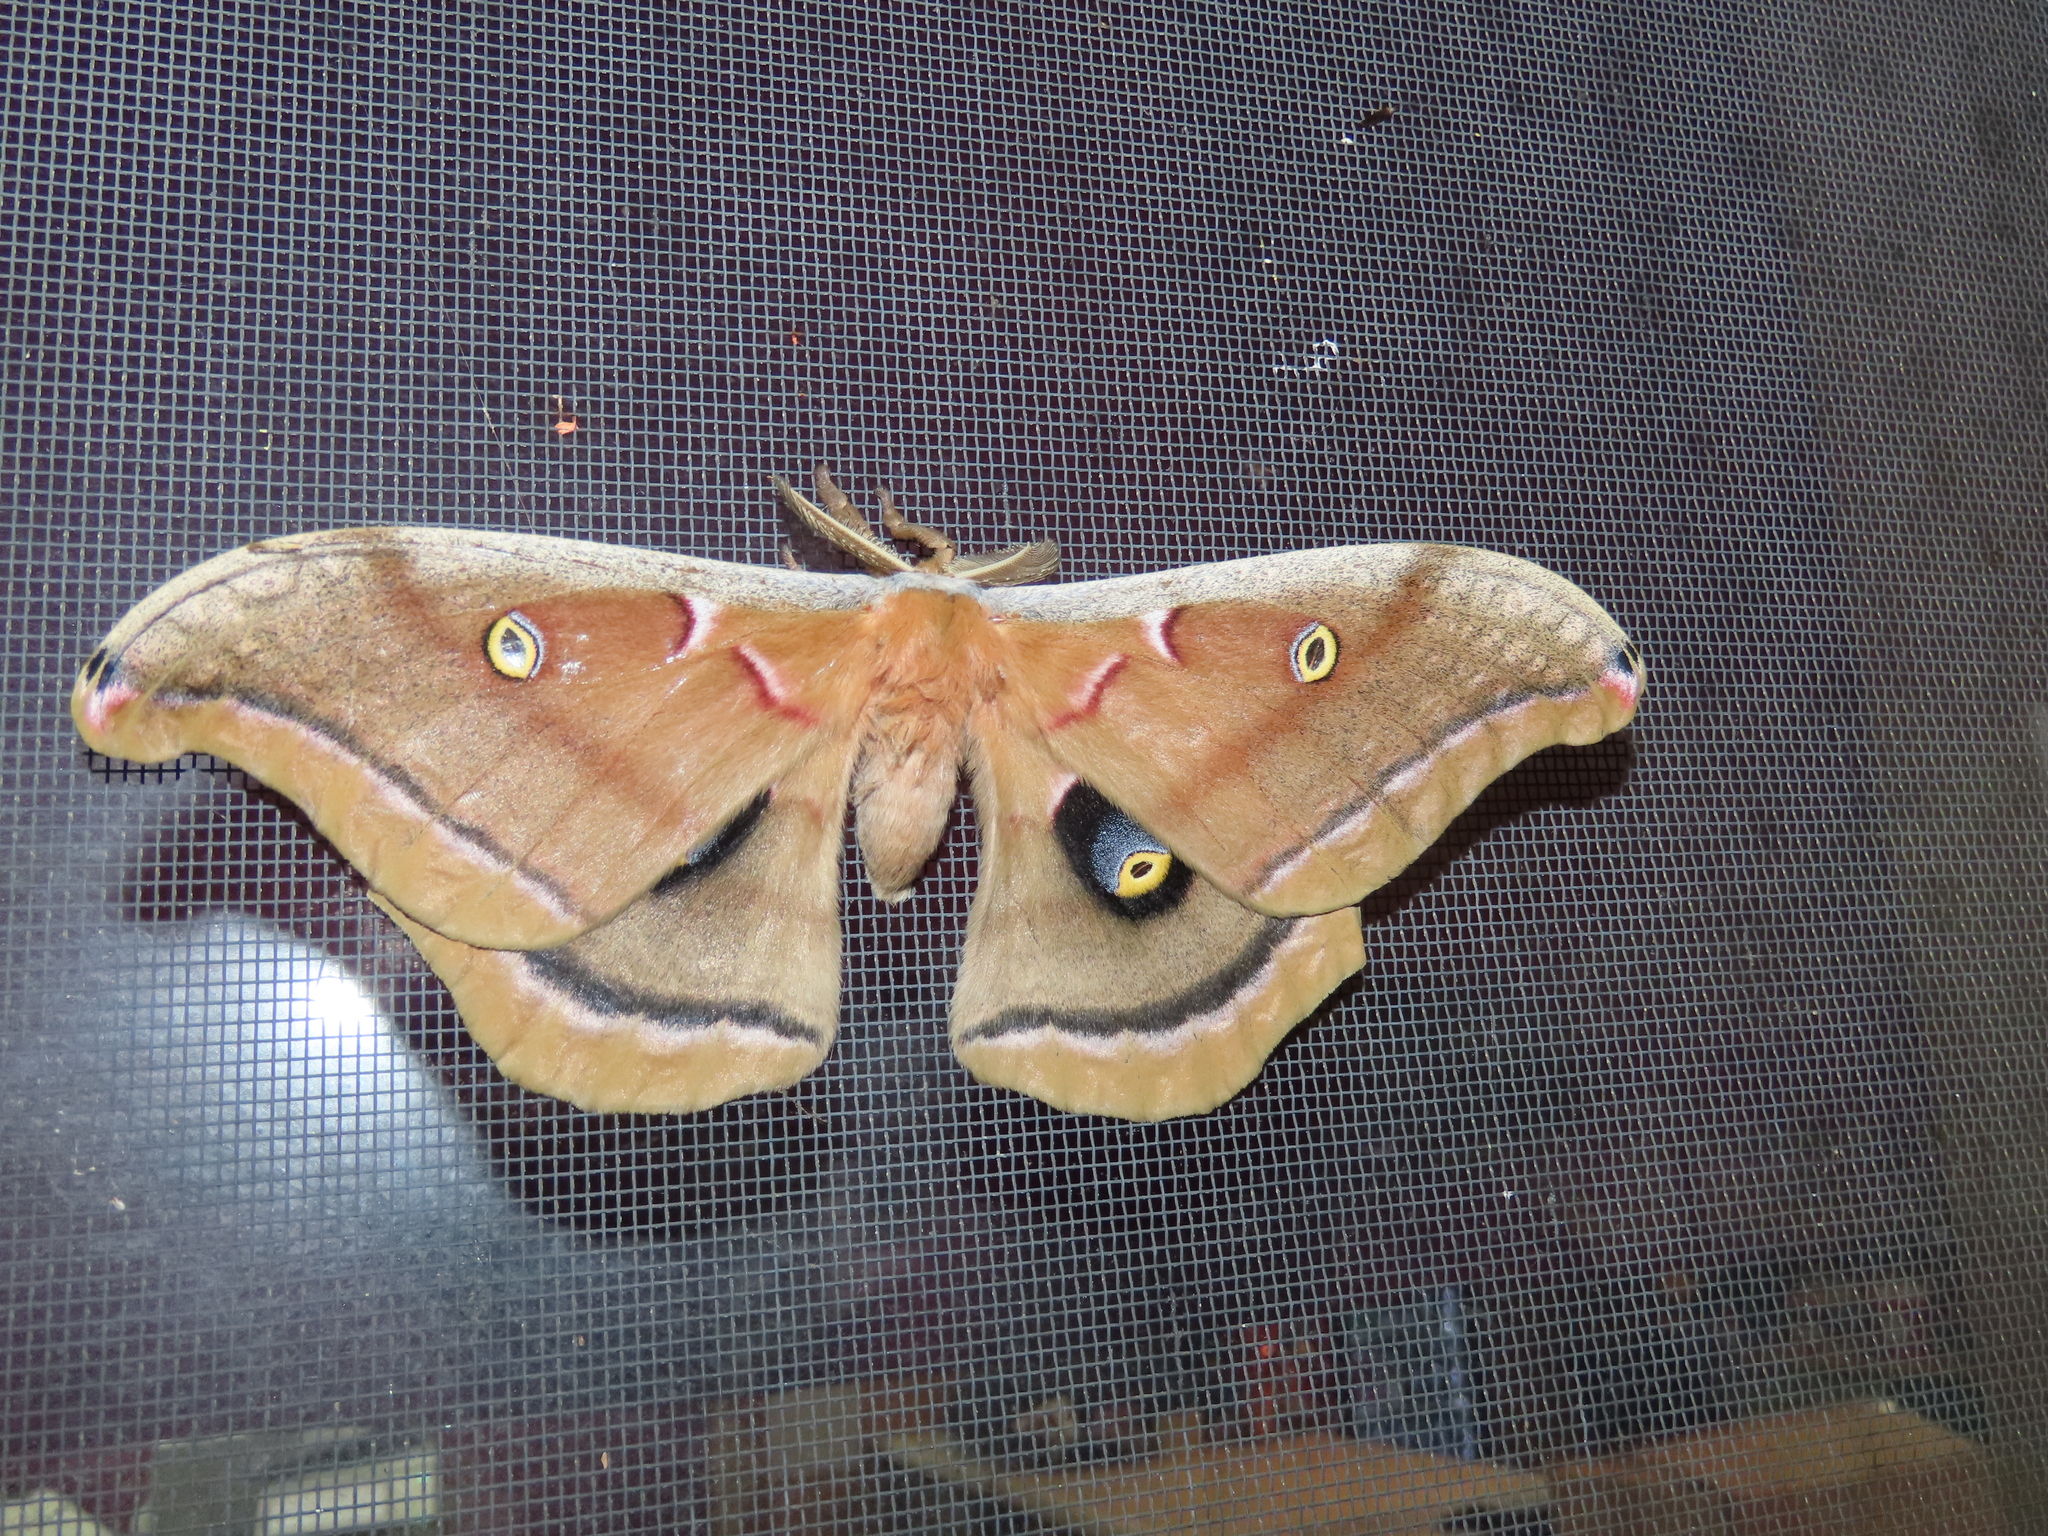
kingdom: Animalia
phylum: Arthropoda
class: Insecta
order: Lepidoptera
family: Saturniidae
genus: Antheraea
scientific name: Antheraea polyphemus
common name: Polyphemus moth
